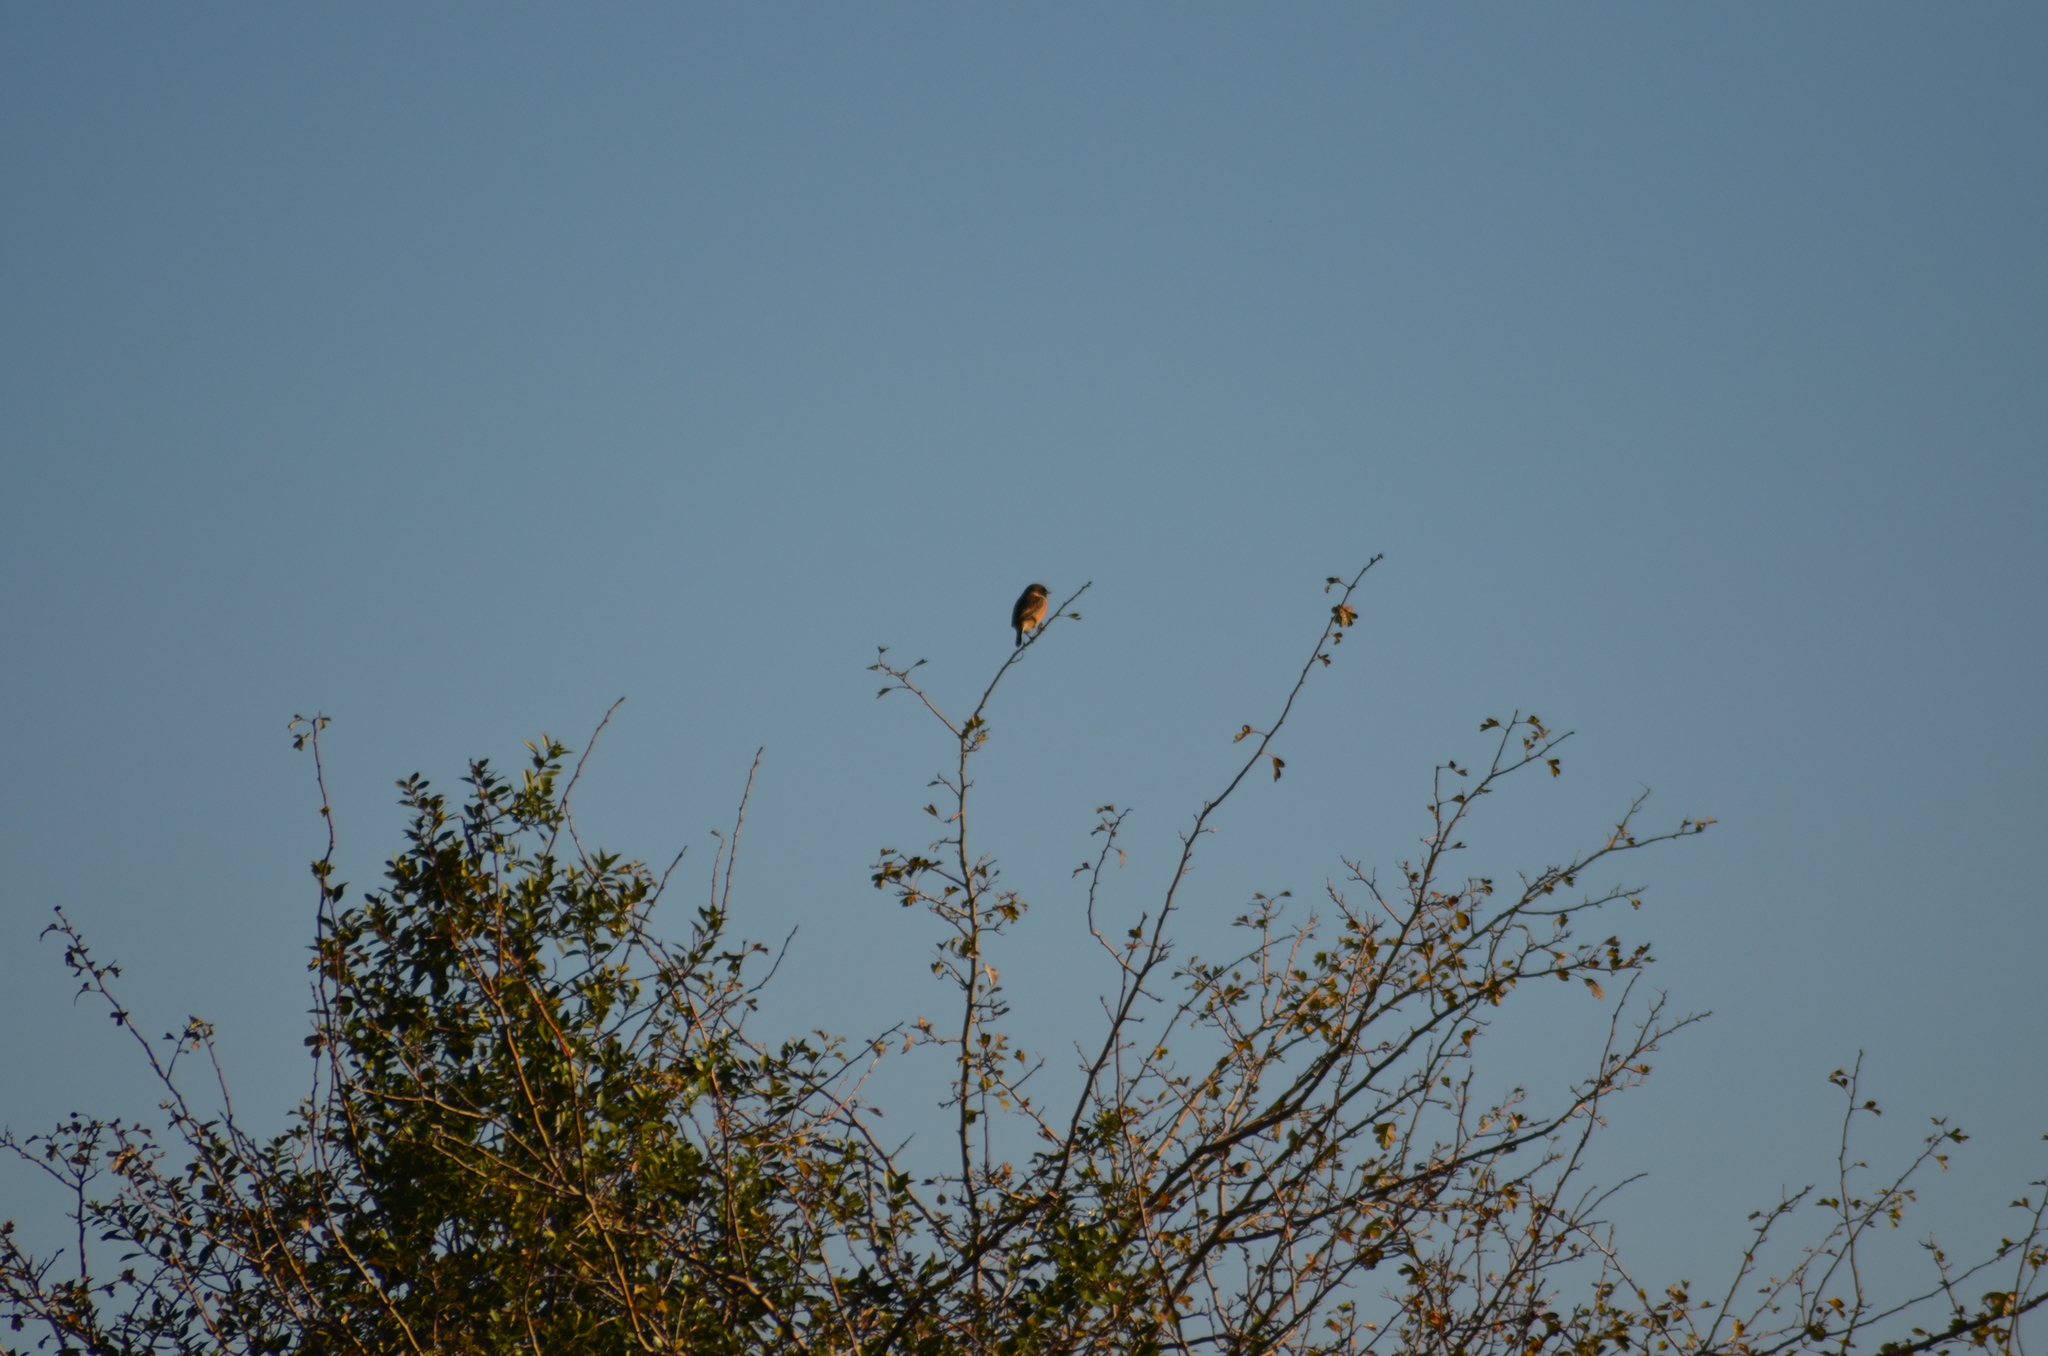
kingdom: Animalia
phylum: Chordata
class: Aves
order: Passeriformes
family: Muscicapidae
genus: Saxicola
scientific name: Saxicola rubicola
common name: European stonechat
